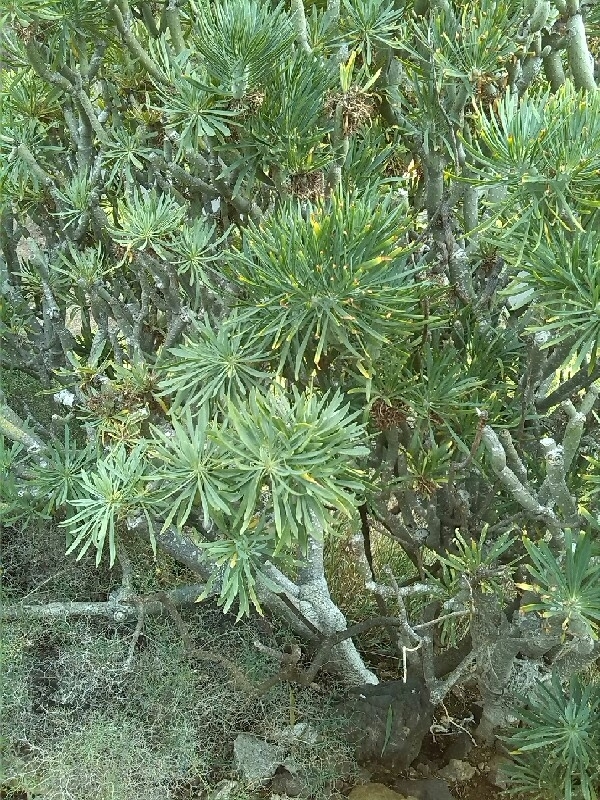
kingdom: Plantae
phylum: Tracheophyta
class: Magnoliopsida
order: Asterales
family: Asteraceae
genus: Kleinia
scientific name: Kleinia neriifolia
